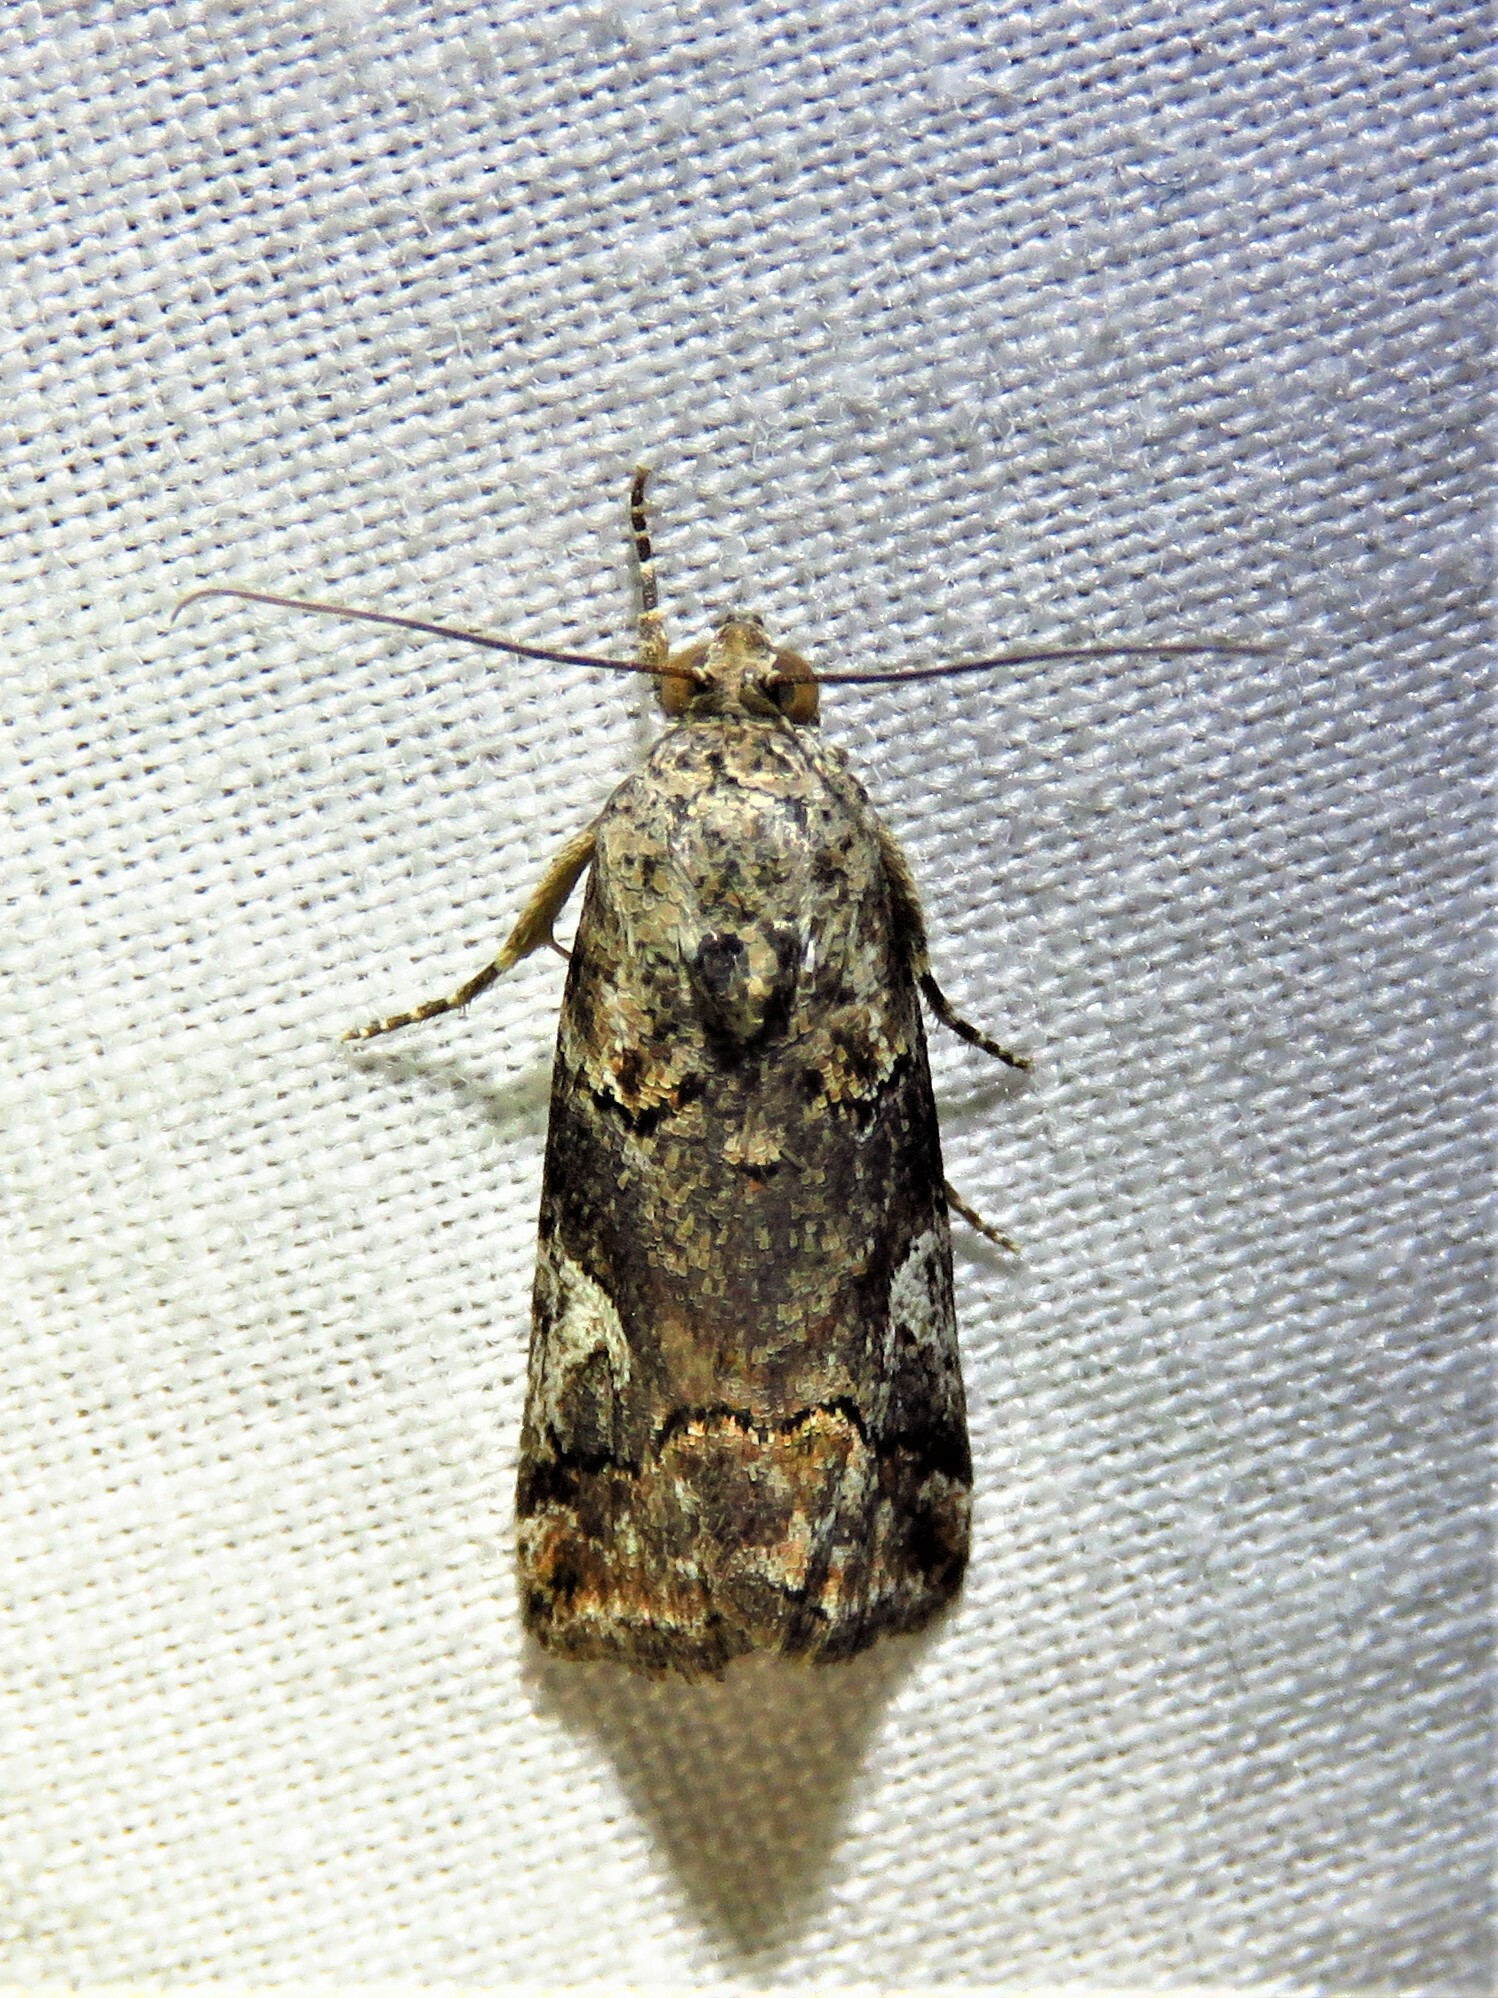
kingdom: Animalia
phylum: Arthropoda
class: Insecta
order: Lepidoptera
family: Noctuidae
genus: Metaponpneumata
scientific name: Metaponpneumata rogenhoferi
